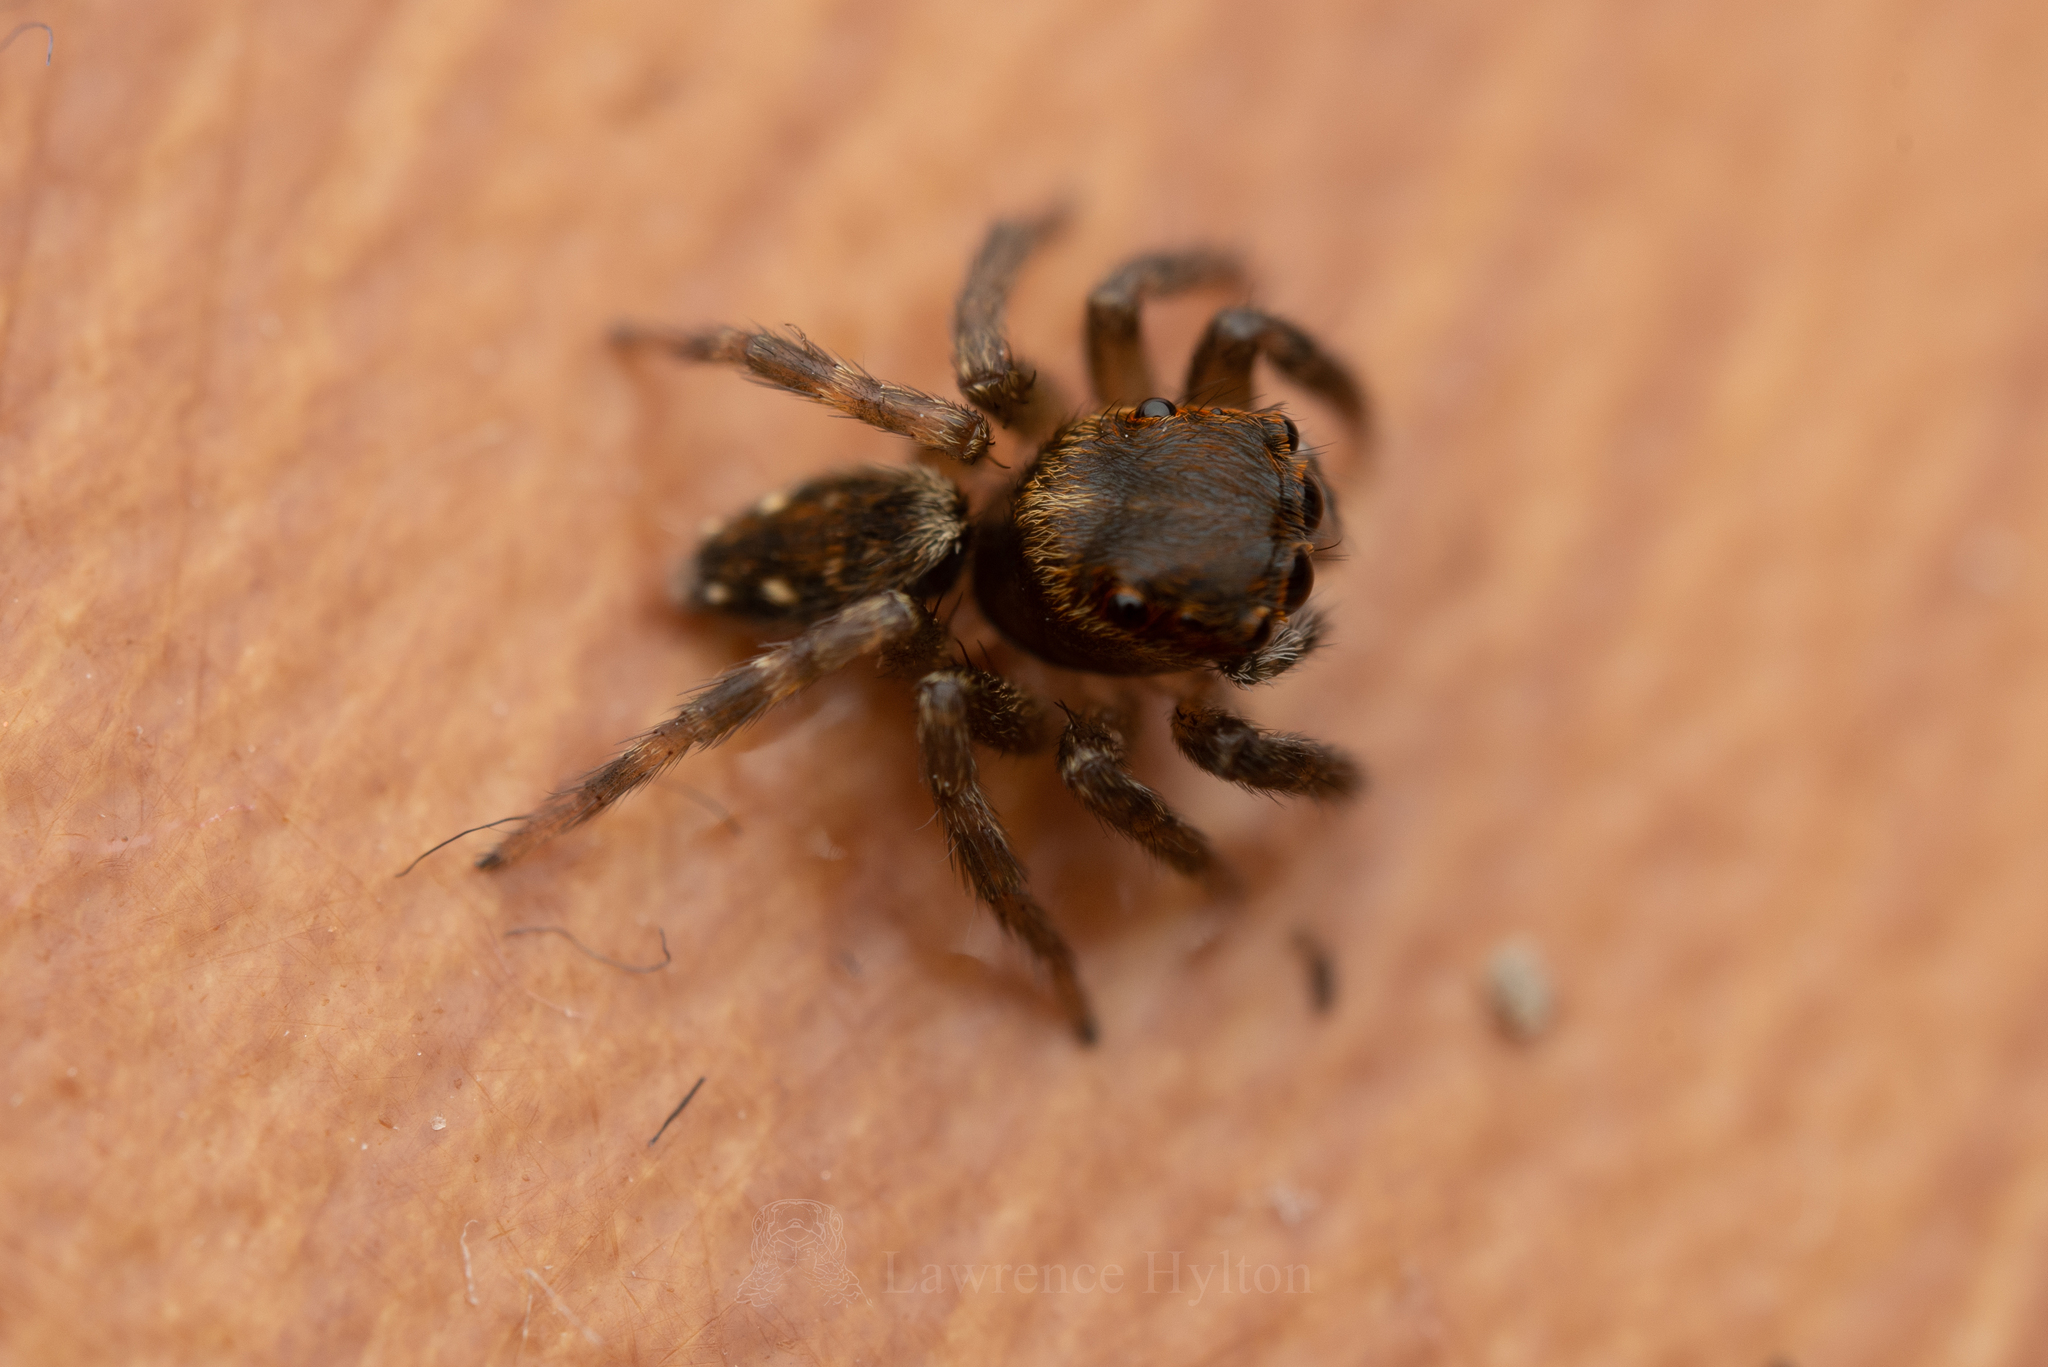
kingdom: Animalia
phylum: Arthropoda
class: Arachnida
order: Araneae
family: Salticidae
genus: Hasarius
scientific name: Hasarius adansoni
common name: Jumping spider
